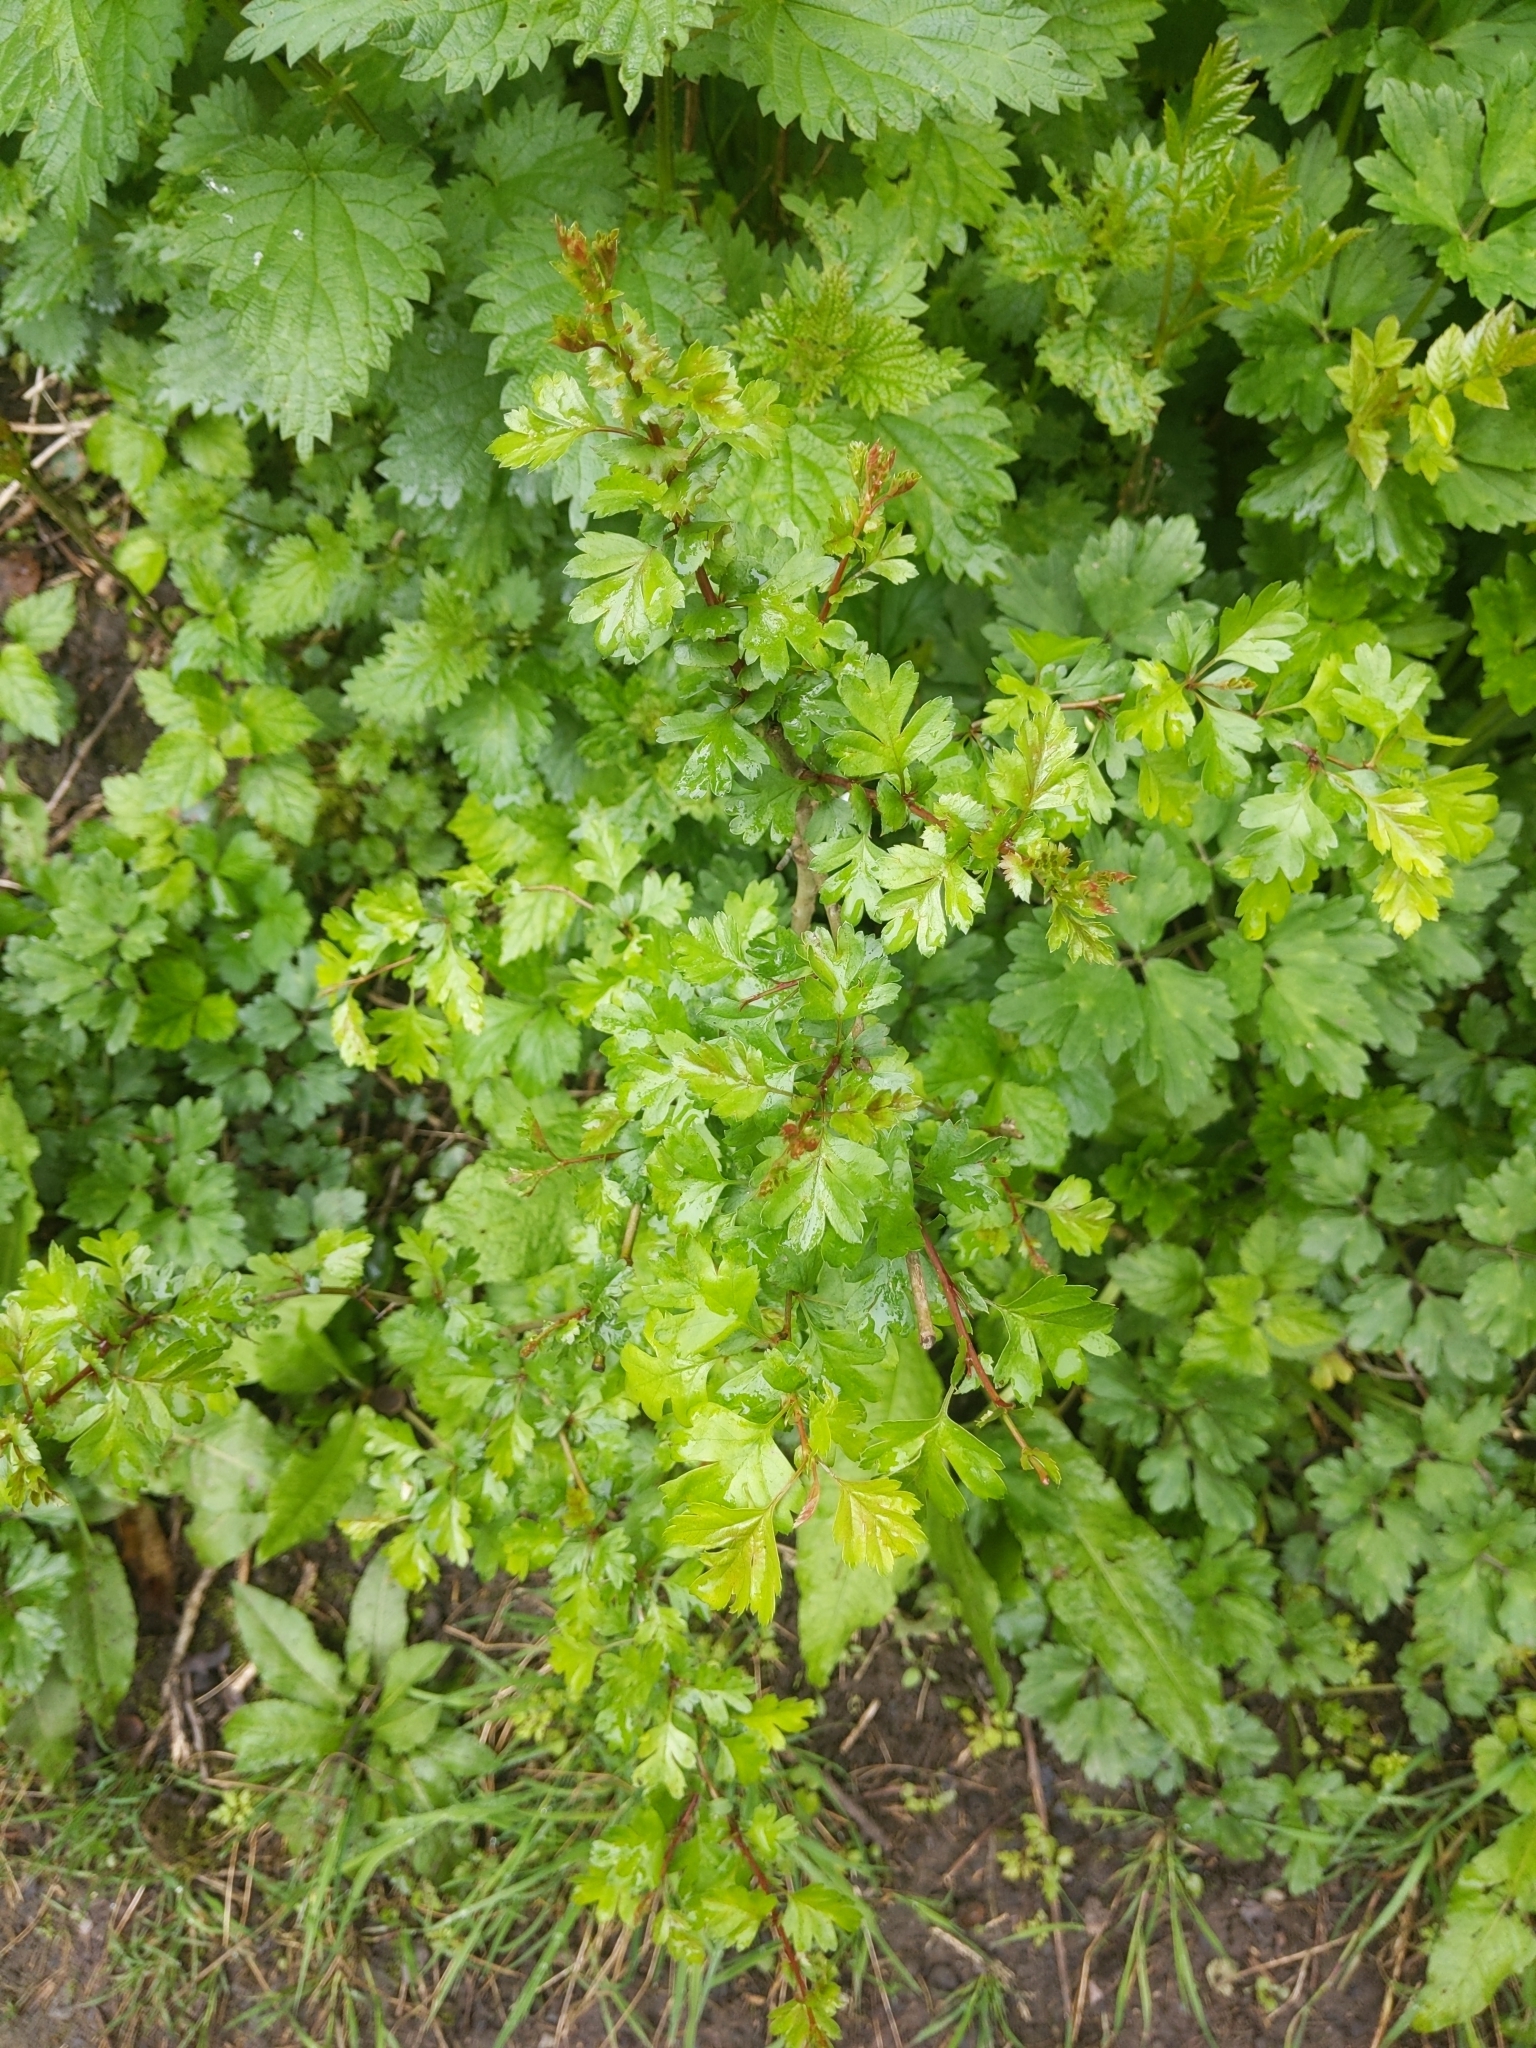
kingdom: Plantae
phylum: Tracheophyta
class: Magnoliopsida
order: Rosales
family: Rosaceae
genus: Crataegus
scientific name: Crataegus monogyna
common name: Hawthorn
